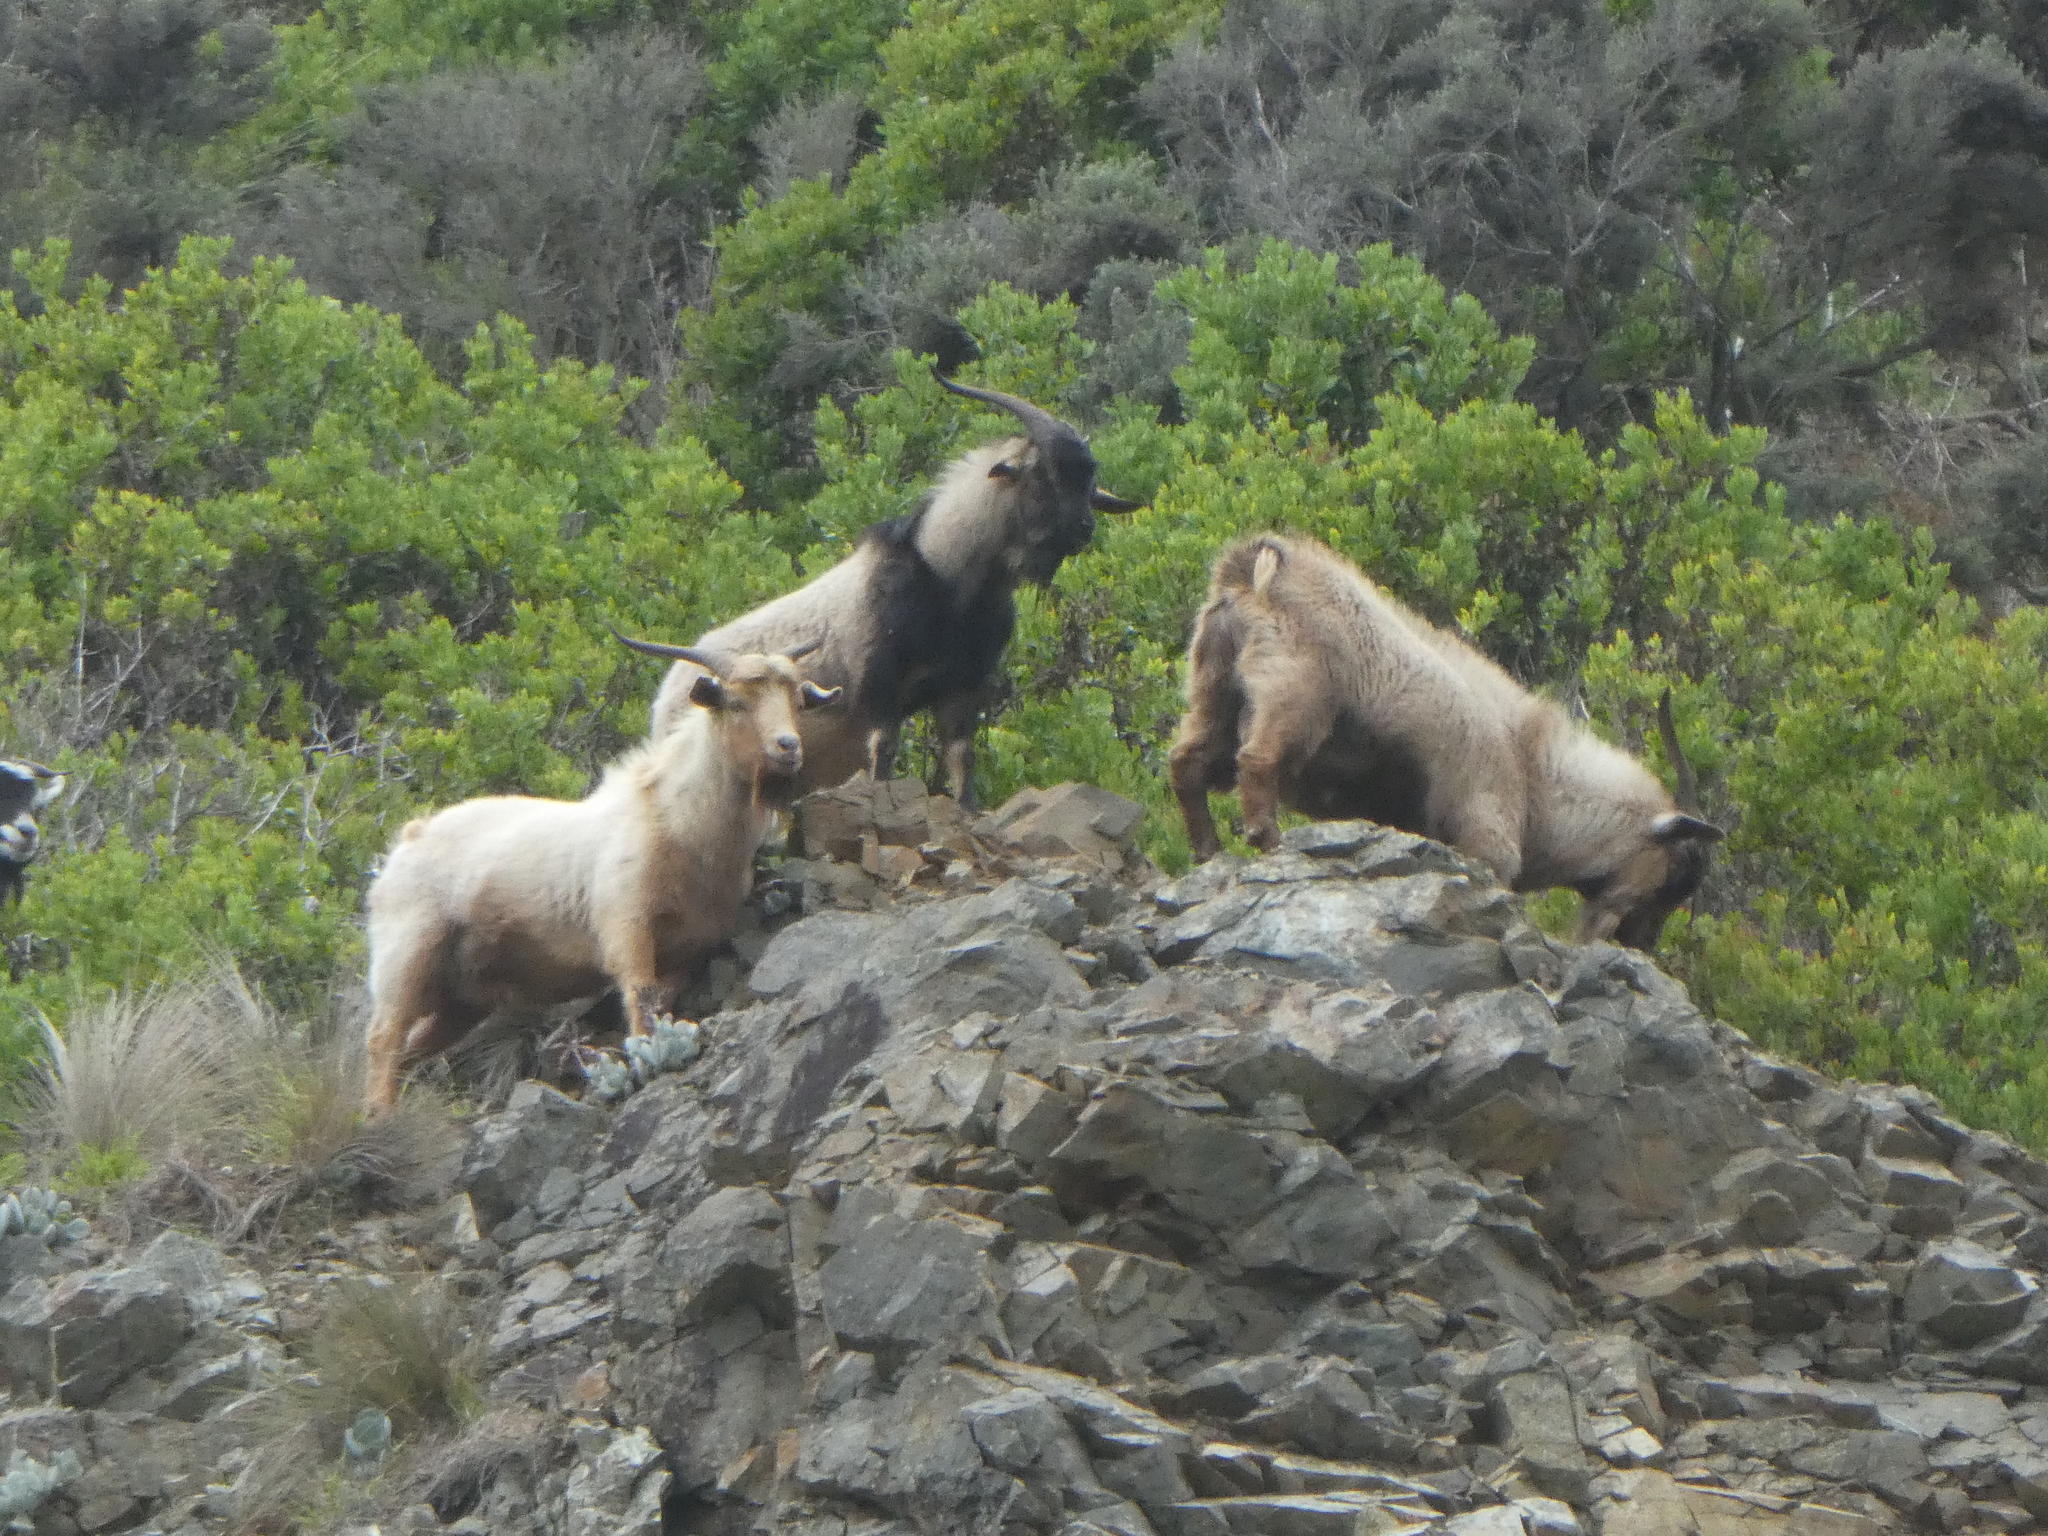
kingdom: Animalia
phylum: Chordata
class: Mammalia
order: Artiodactyla
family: Bovidae
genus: Capra
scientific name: Capra hircus
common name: Domestic goat
